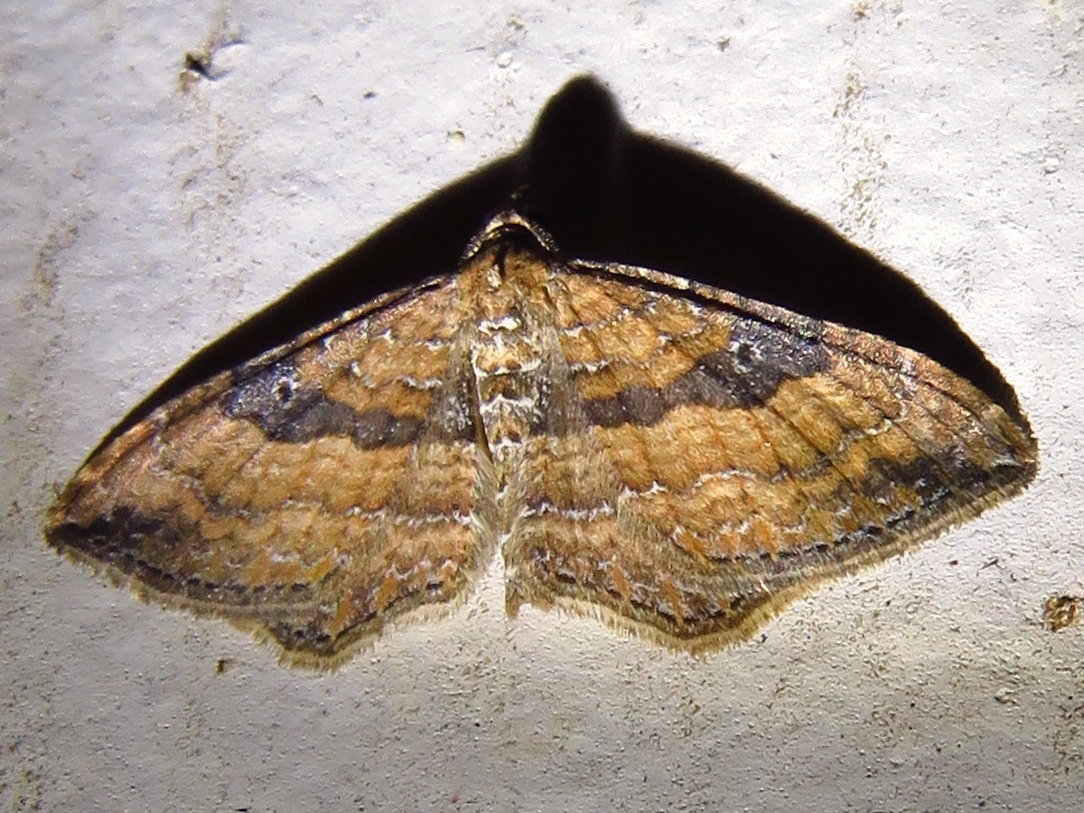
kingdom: Animalia
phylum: Arthropoda
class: Insecta
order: Lepidoptera
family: Geometridae
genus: Orthonama
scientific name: Orthonama obstipata
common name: The gem
